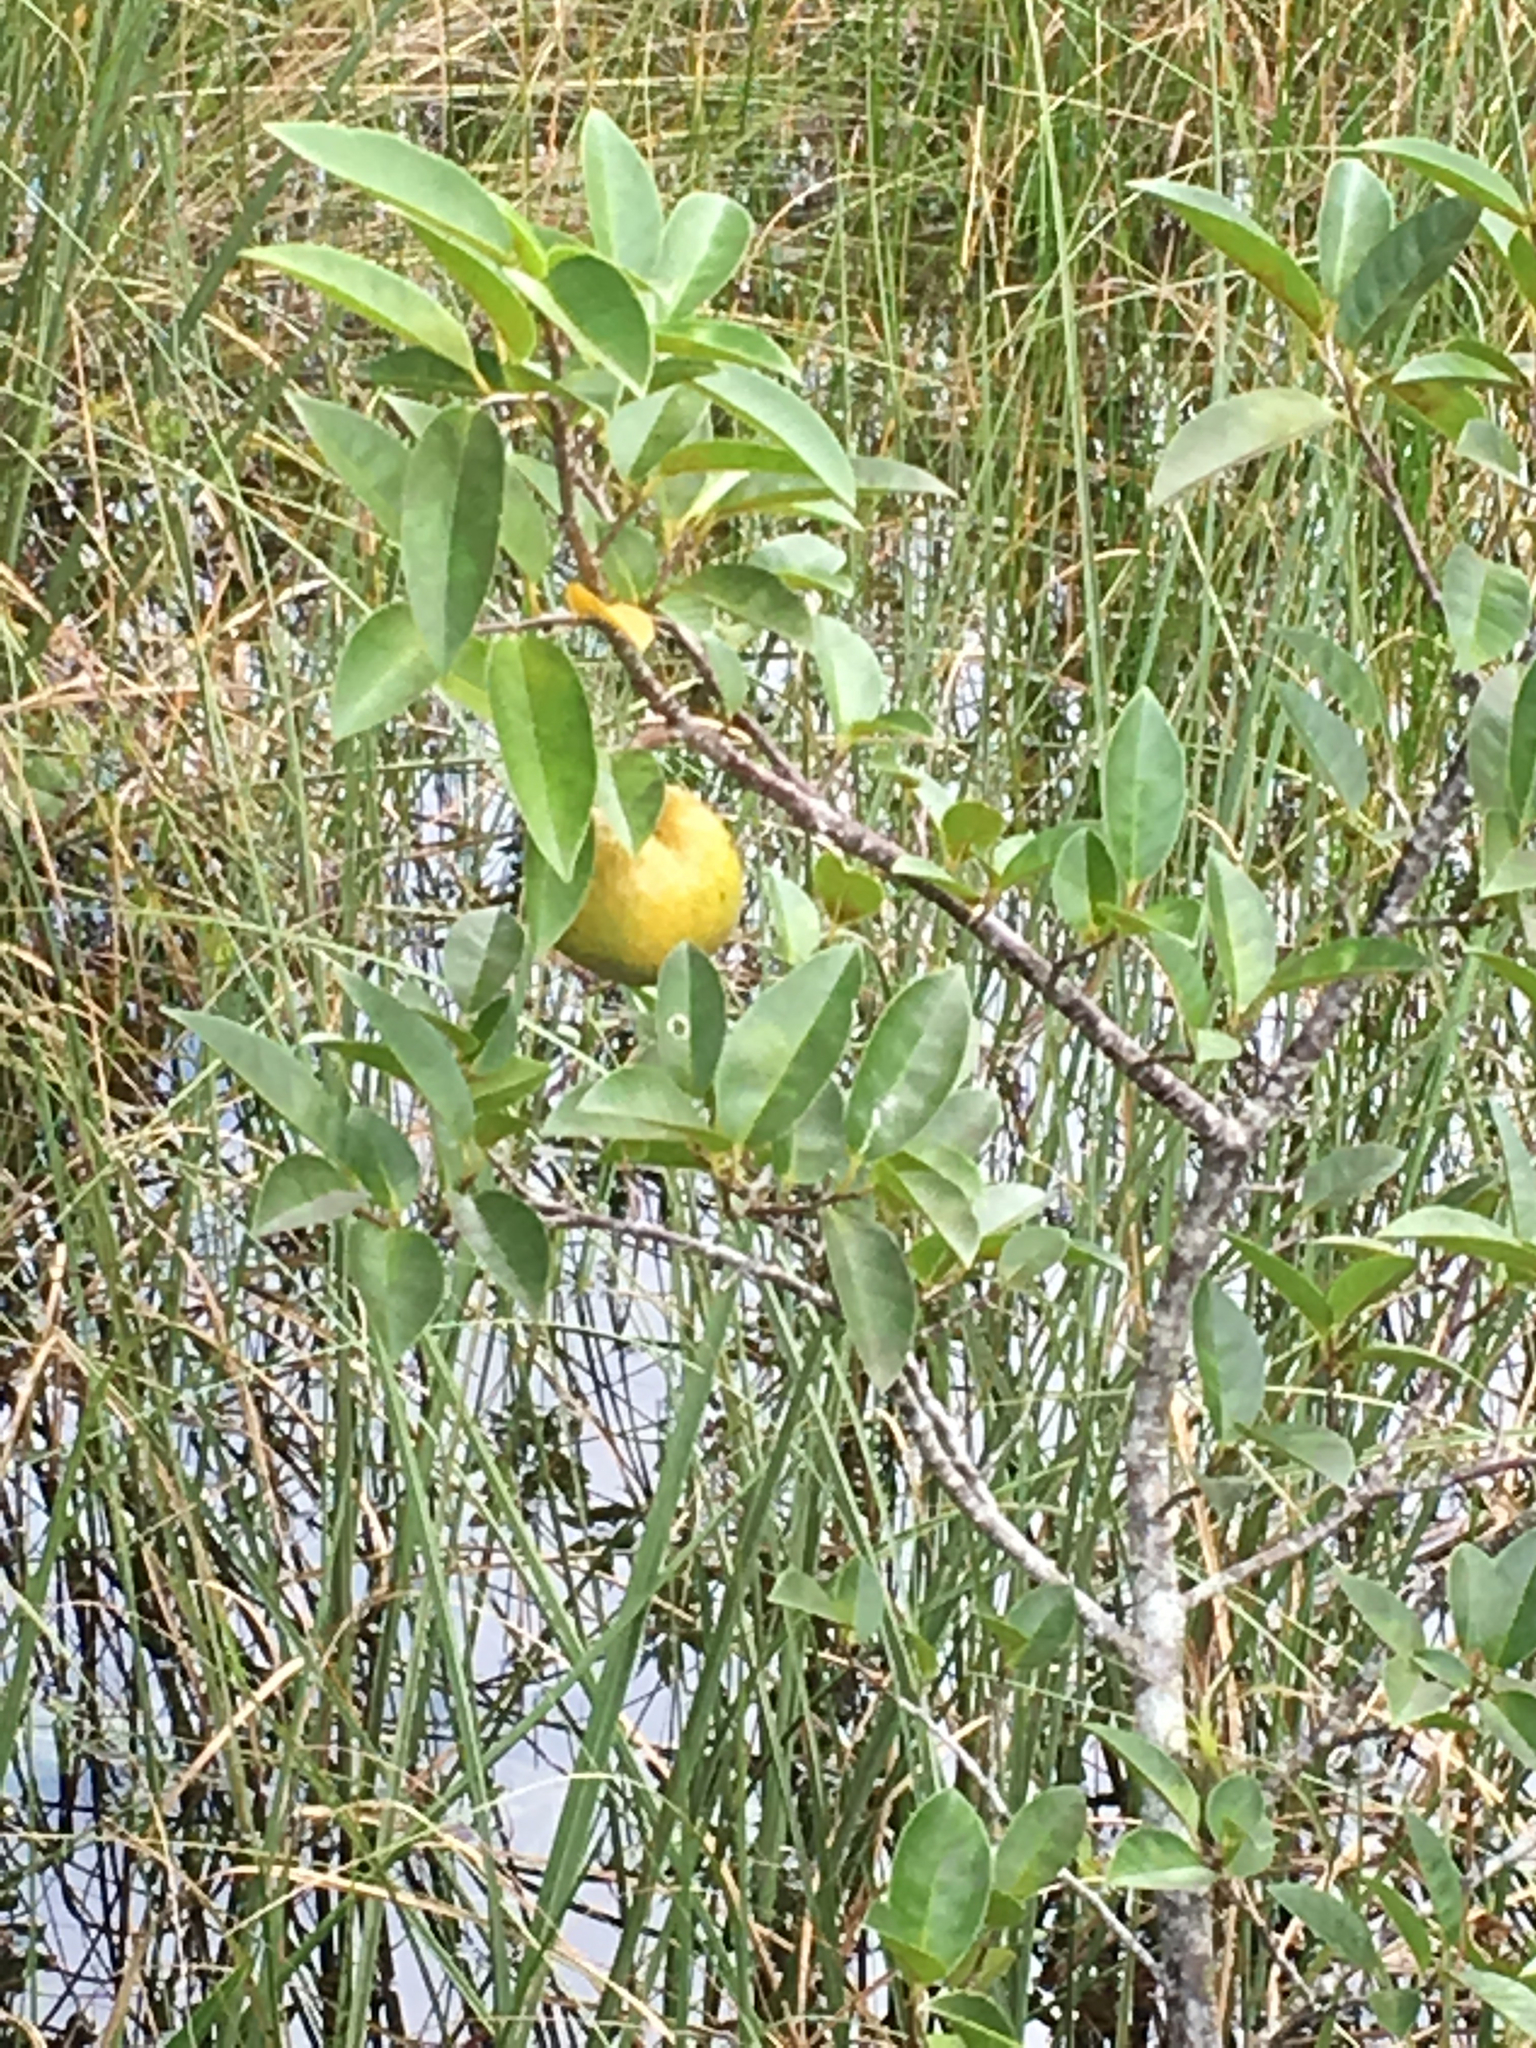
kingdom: Plantae
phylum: Tracheophyta
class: Magnoliopsida
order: Magnoliales
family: Annonaceae
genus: Annona
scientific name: Annona glabra
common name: Monkey apple
